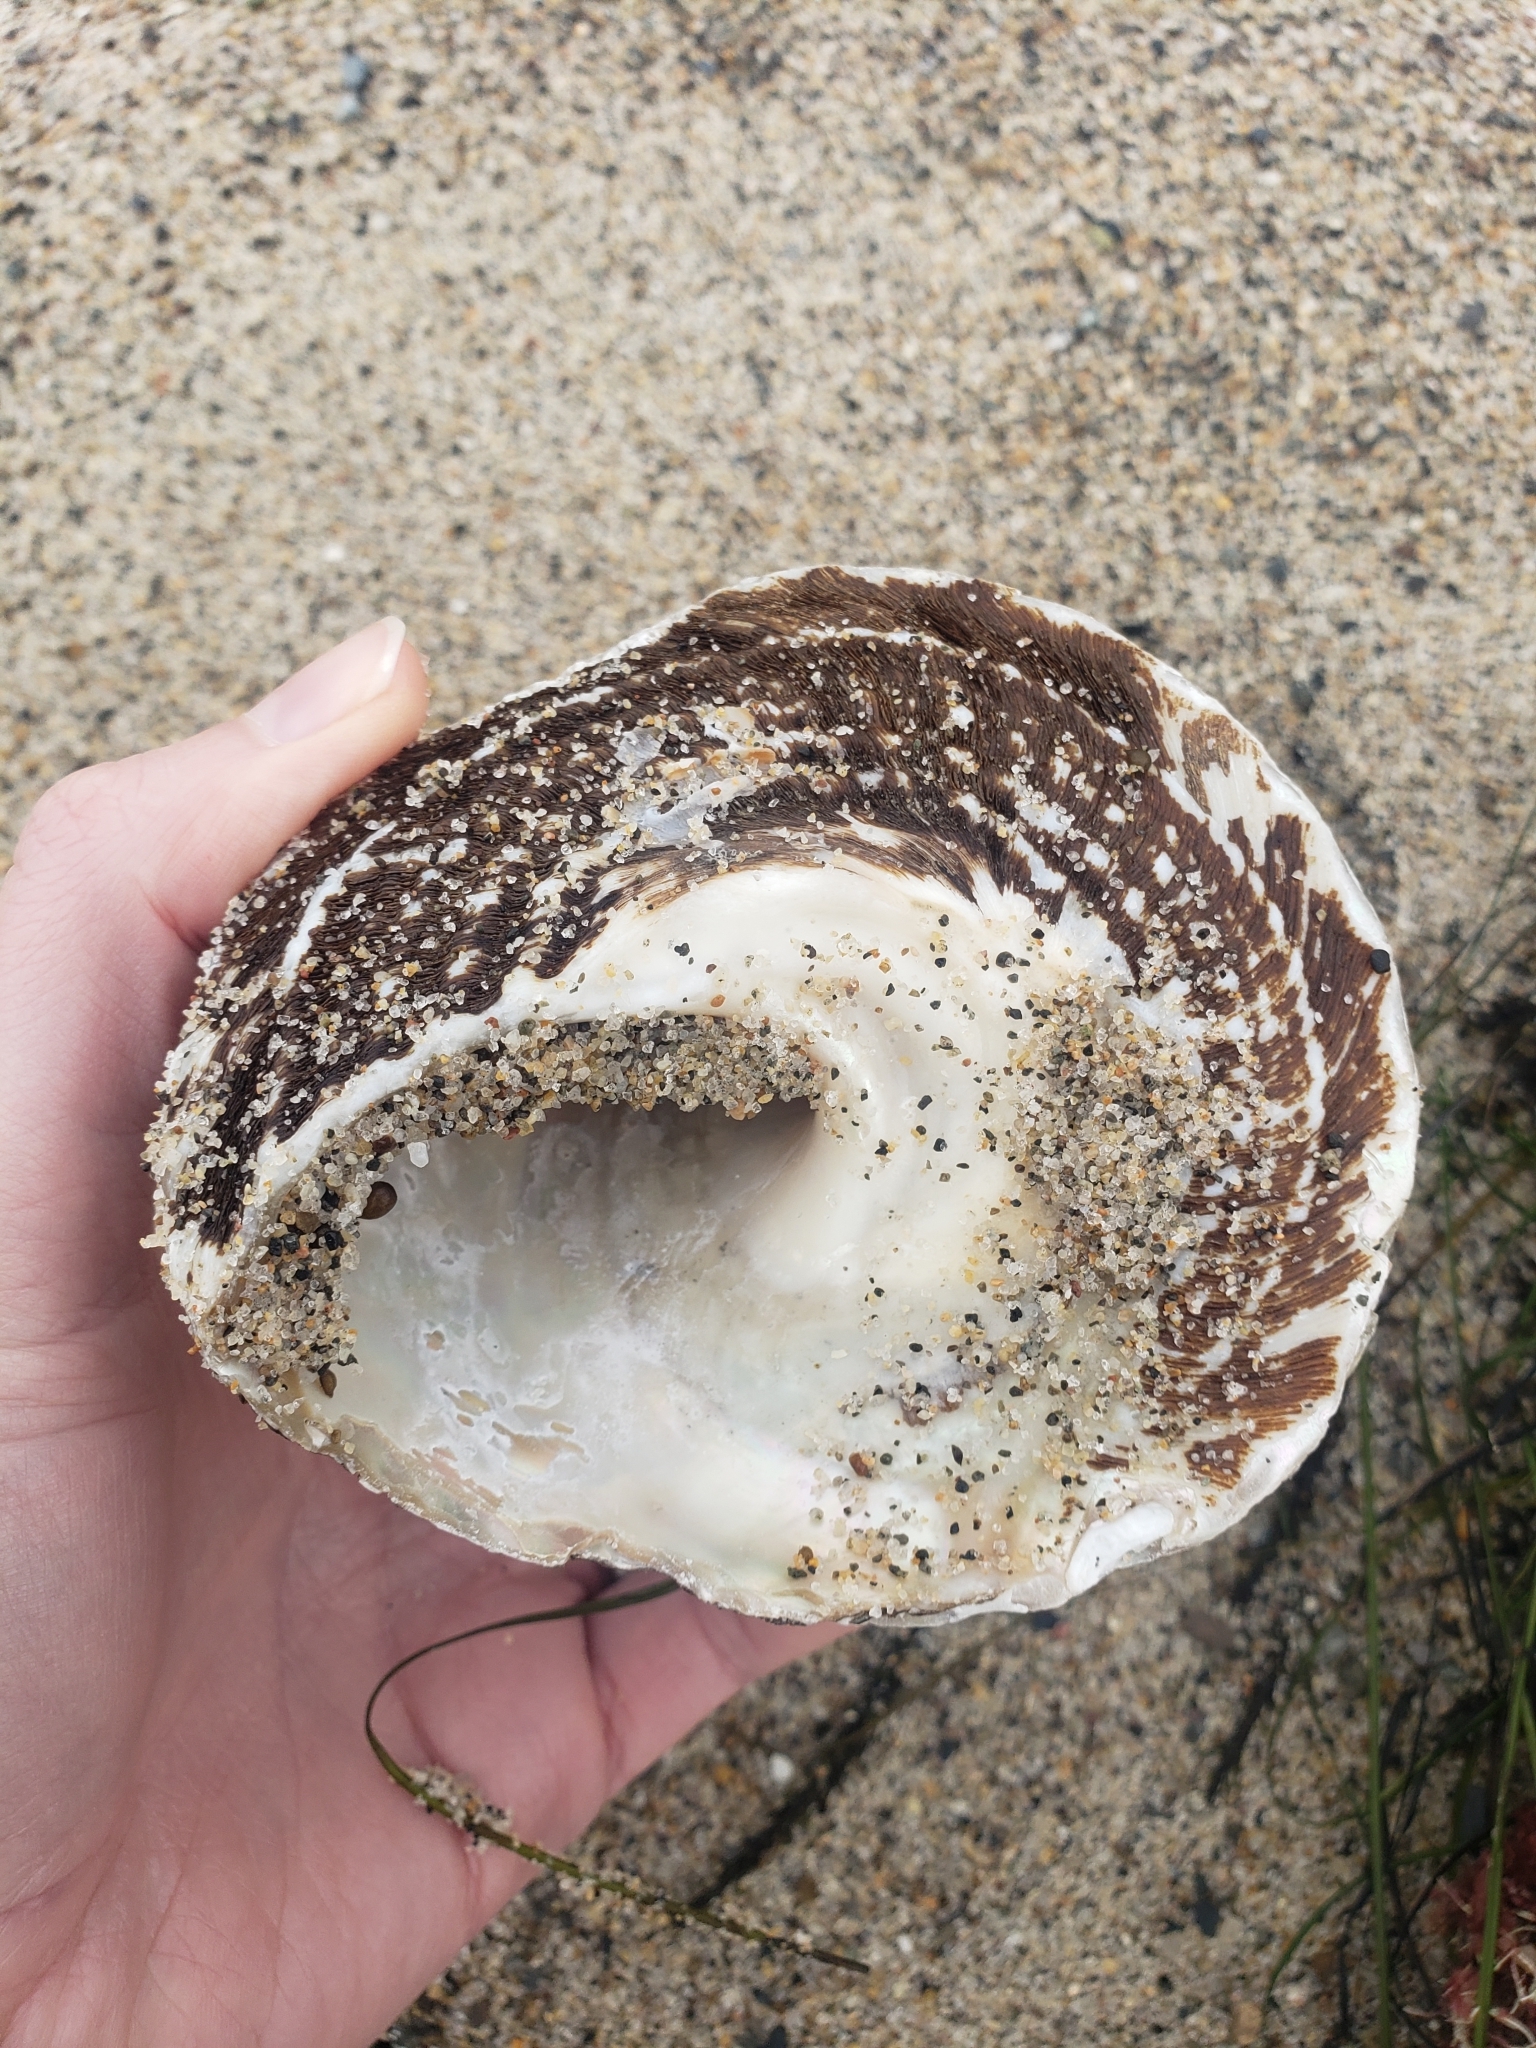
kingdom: Animalia
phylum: Mollusca
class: Gastropoda
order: Trochida
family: Turbinidae
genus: Megastraea
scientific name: Megastraea undosa
